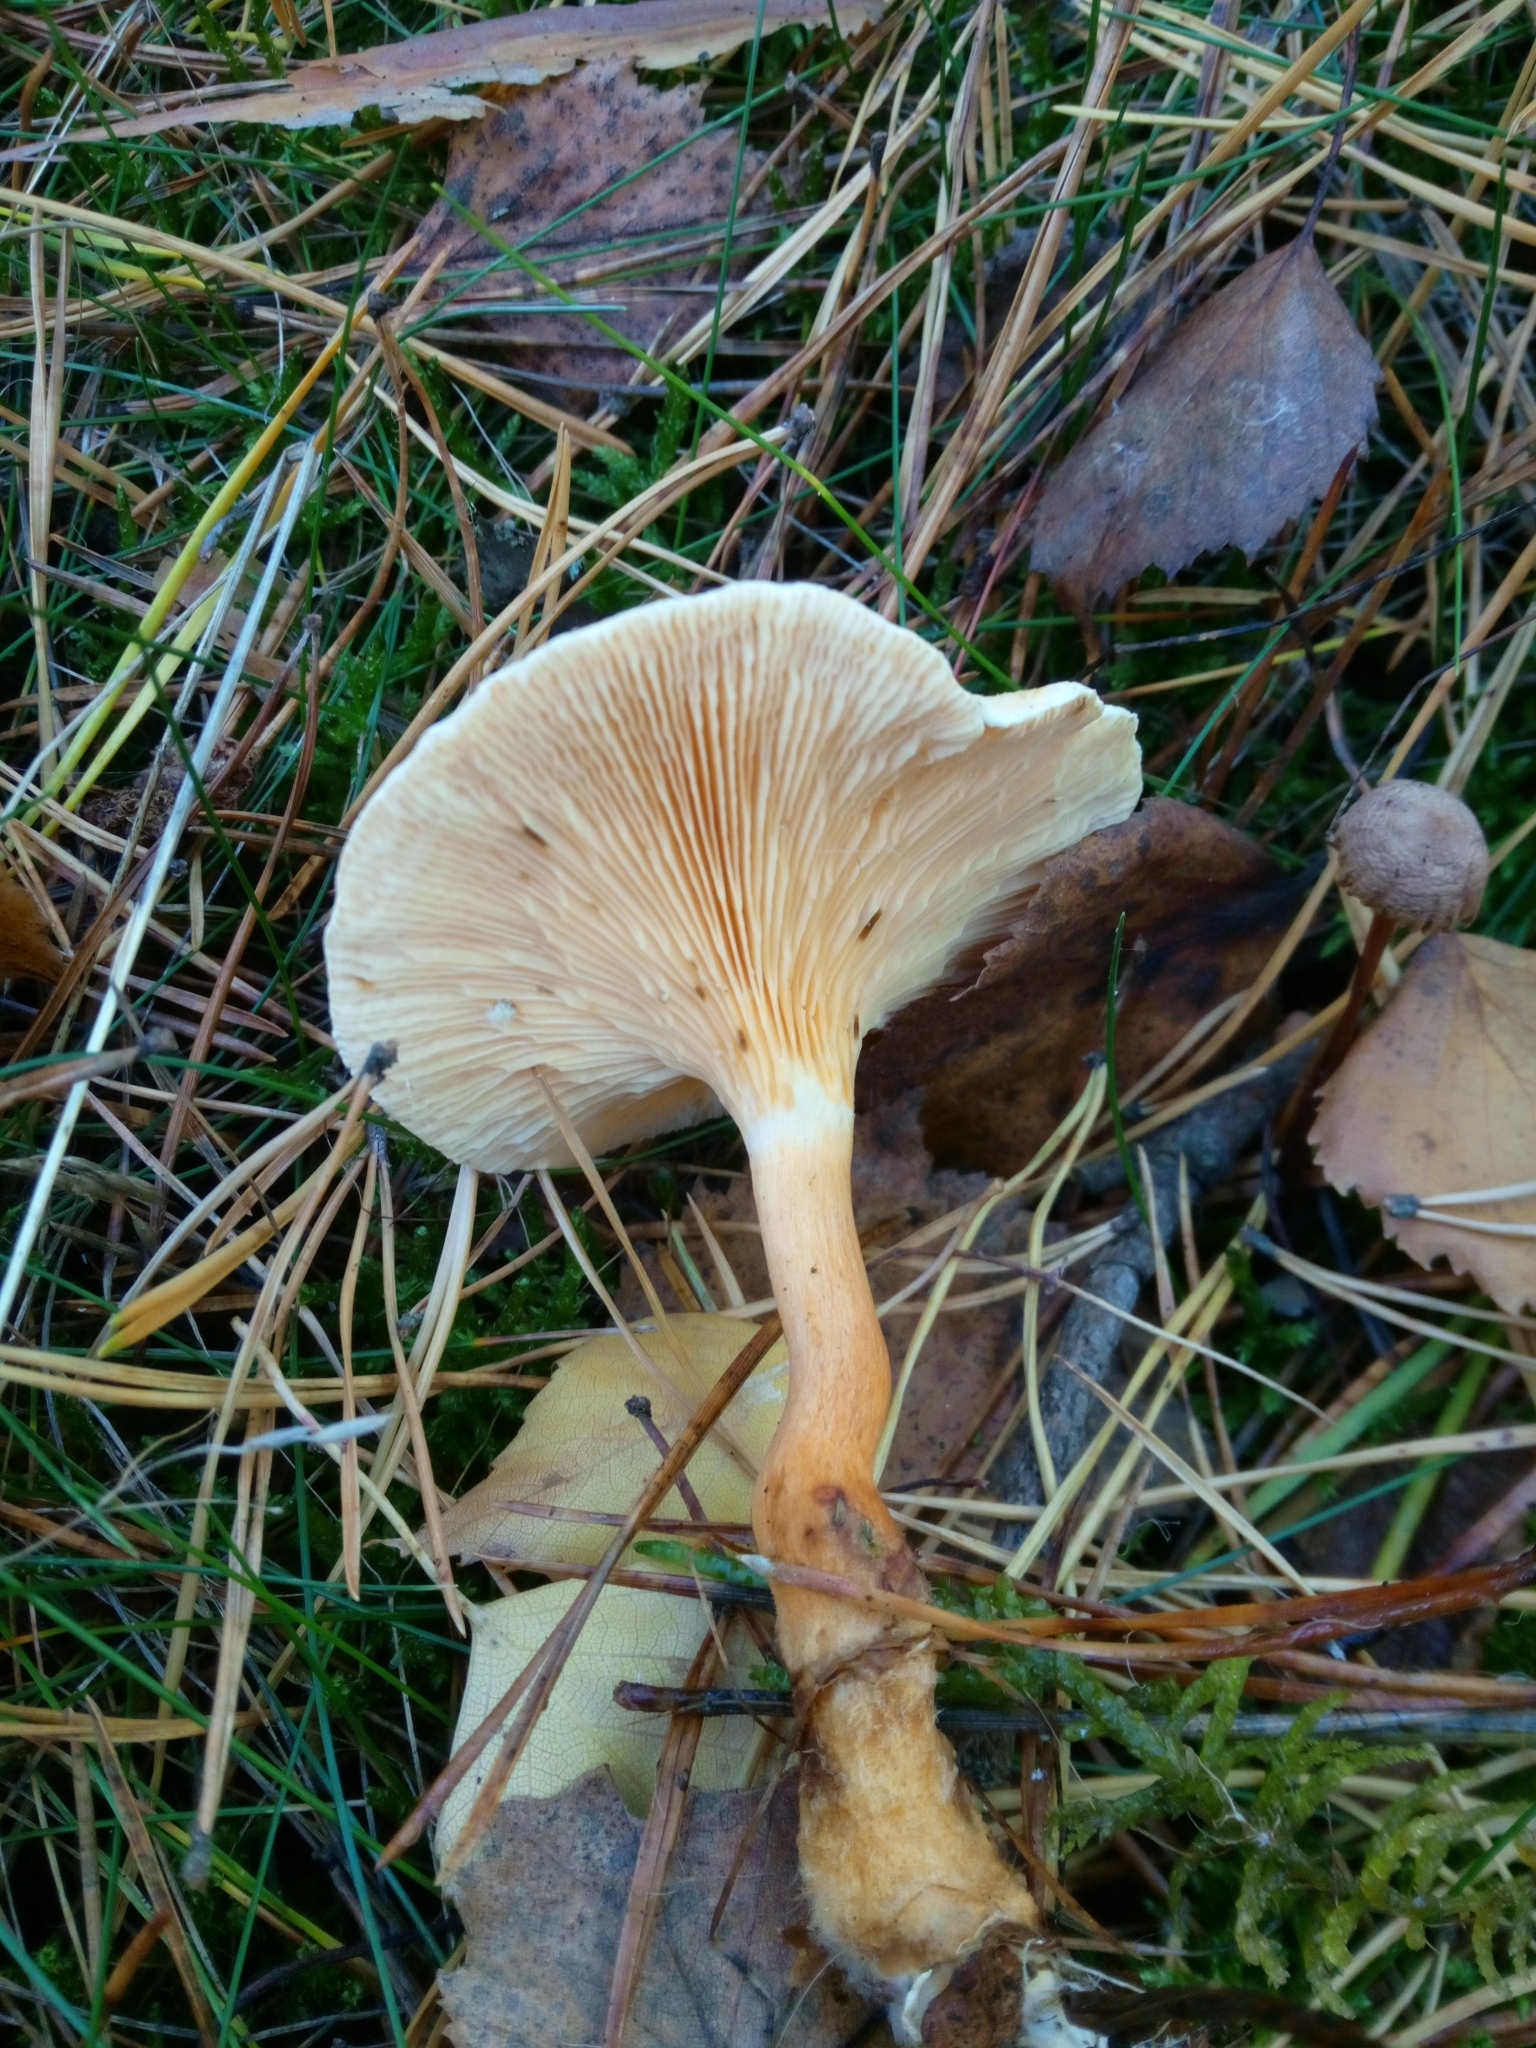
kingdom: Fungi
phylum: Basidiomycota
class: Agaricomycetes
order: Boletales
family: Hygrophoropsidaceae
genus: Hygrophoropsis
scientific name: Hygrophoropsis aurantiaca
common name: False chanterelle
